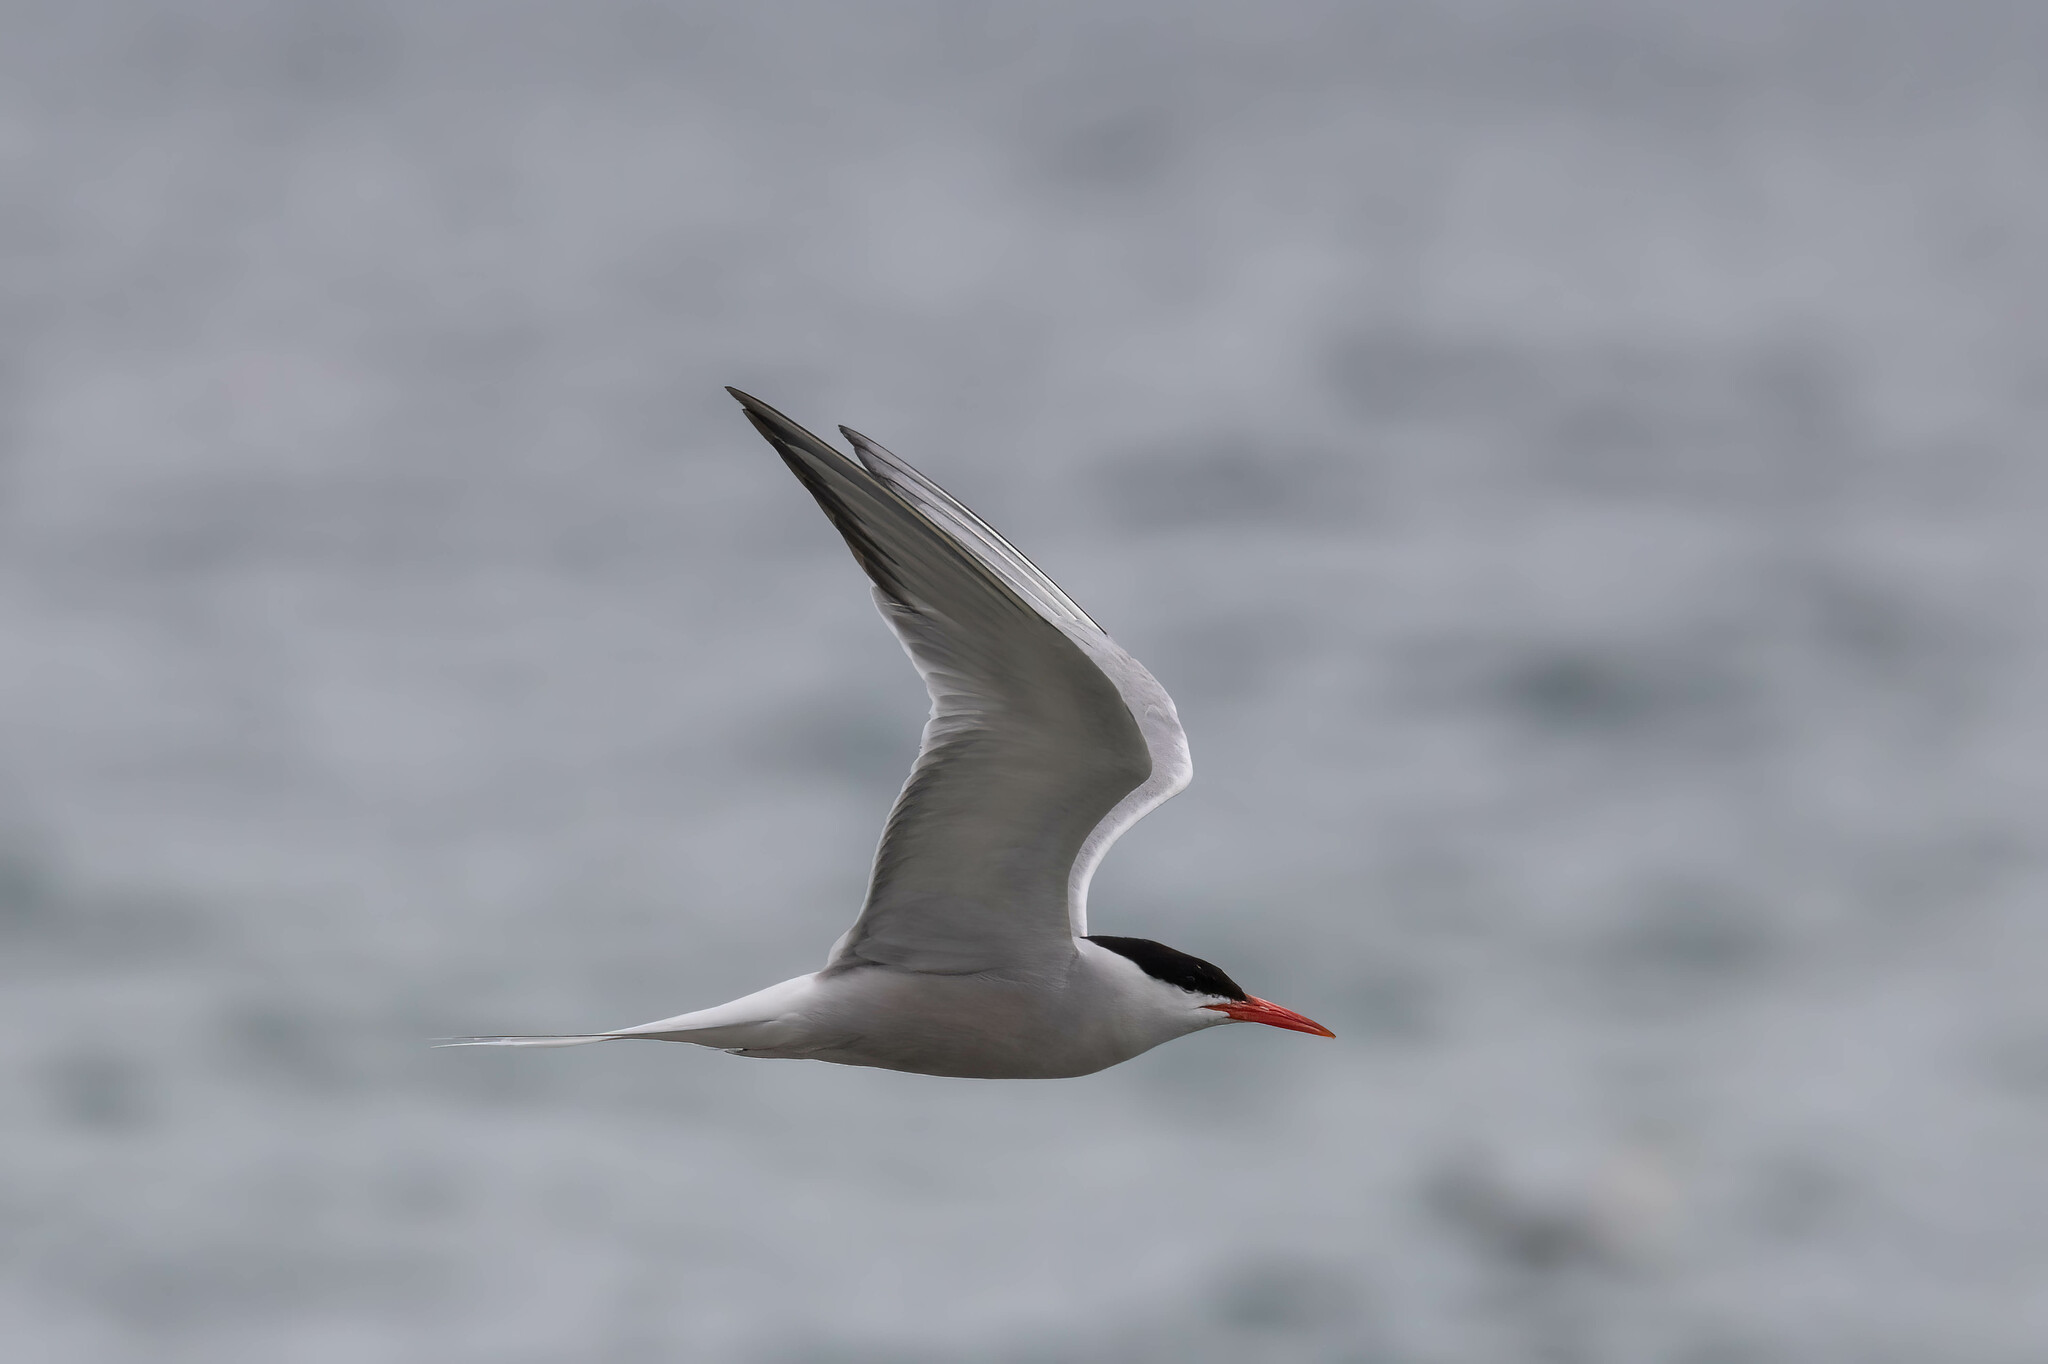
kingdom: Animalia
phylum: Chordata
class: Aves
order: Charadriiformes
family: Laridae
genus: Sterna
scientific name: Sterna hirundo
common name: Common tern
